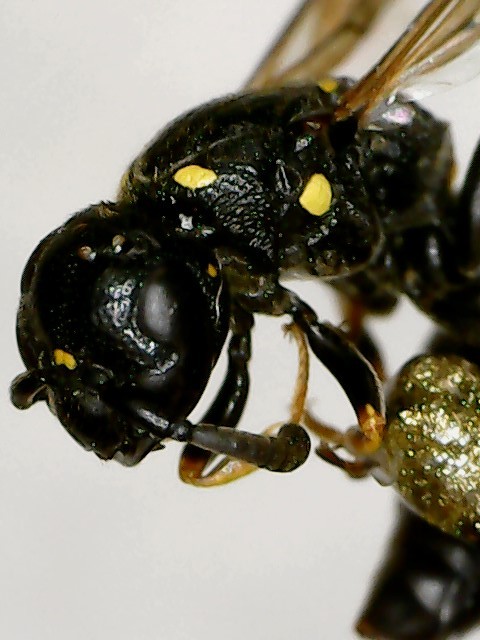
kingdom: Animalia
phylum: Arthropoda
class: Insecta
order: Hymenoptera
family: Eumenidae
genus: Symmorphus
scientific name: Symmorphus canadensis
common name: Canadian potter wasp
